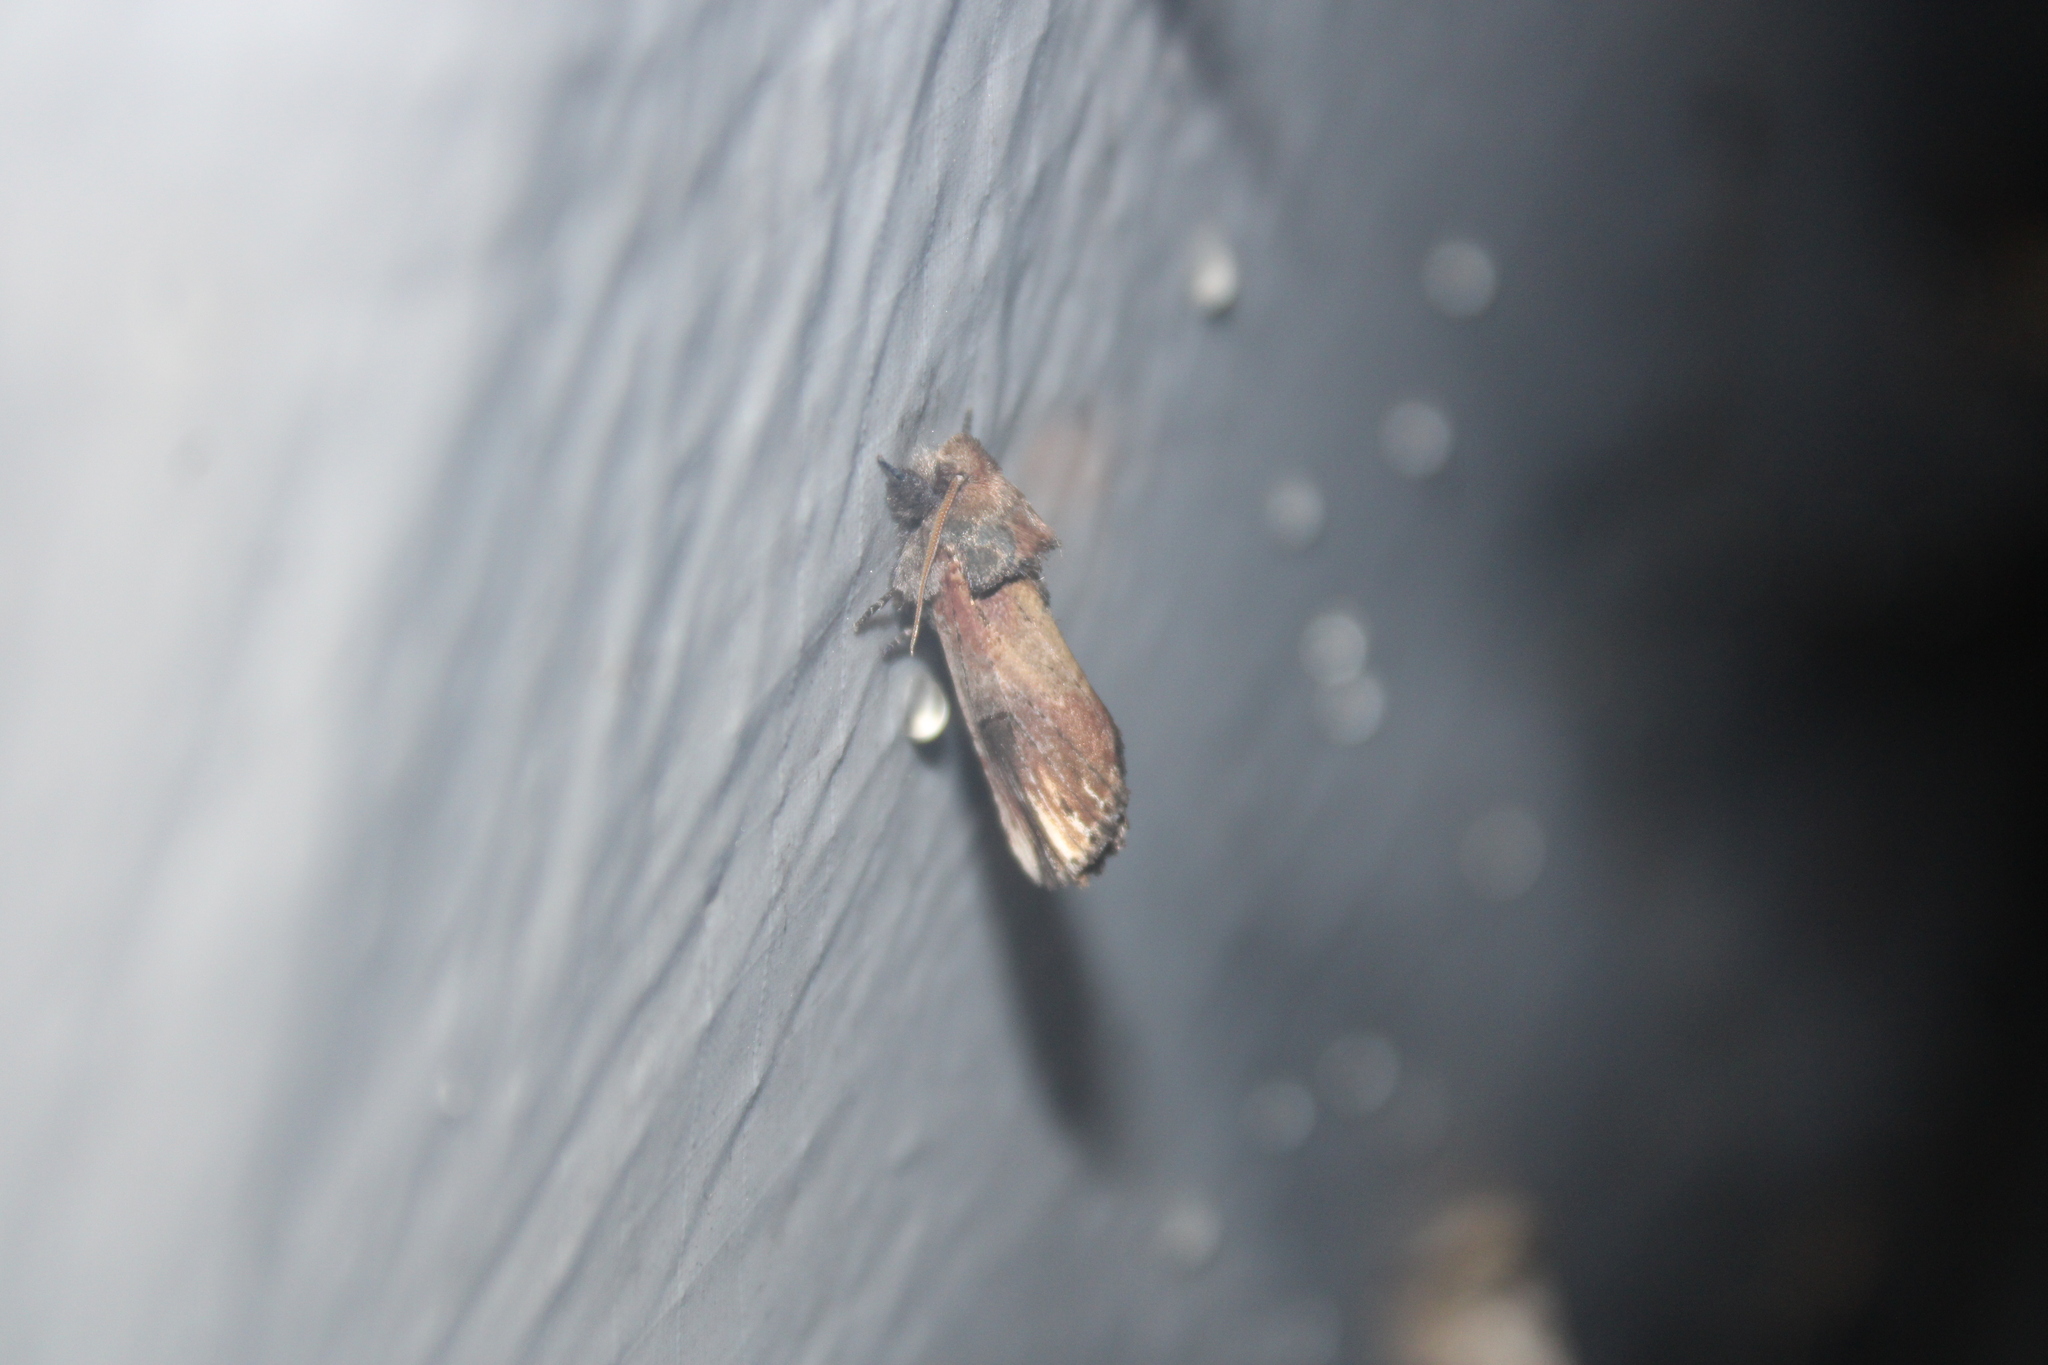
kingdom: Animalia
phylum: Arthropoda
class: Insecta
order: Lepidoptera
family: Notodontidae
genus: Schizura
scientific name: Schizura badia
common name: Chestnut schizura
